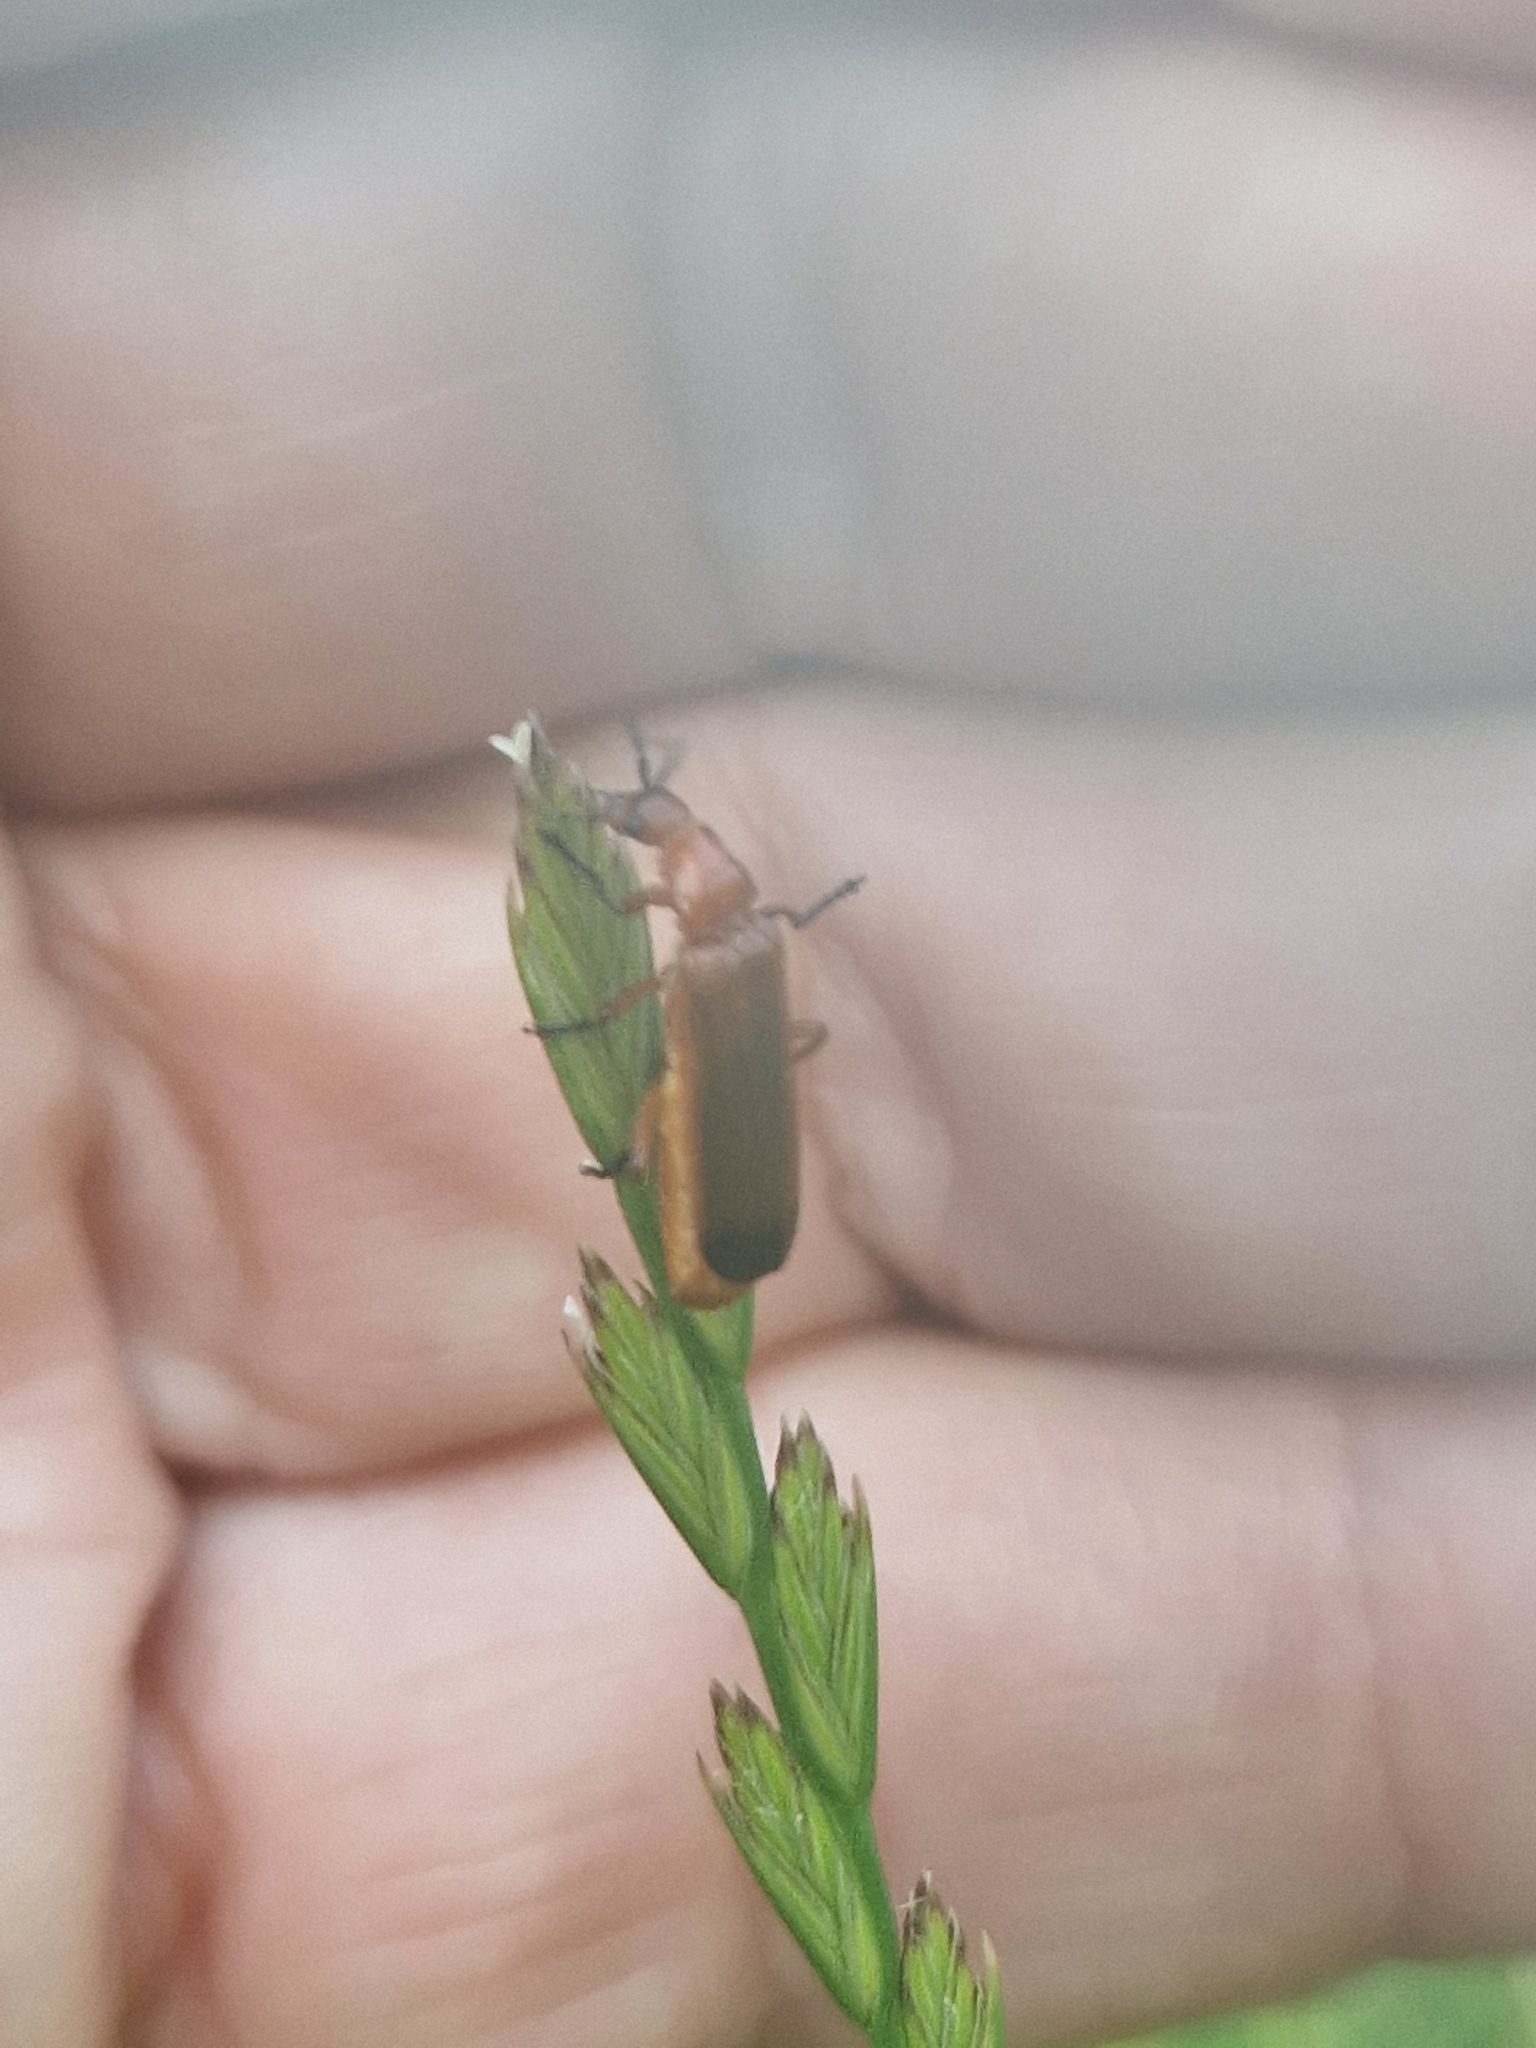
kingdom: Animalia
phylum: Arthropoda
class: Insecta
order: Coleoptera
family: Cantharidae
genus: Rhagonycha
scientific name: Rhagonycha fulva
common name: Common red soldier beetle
